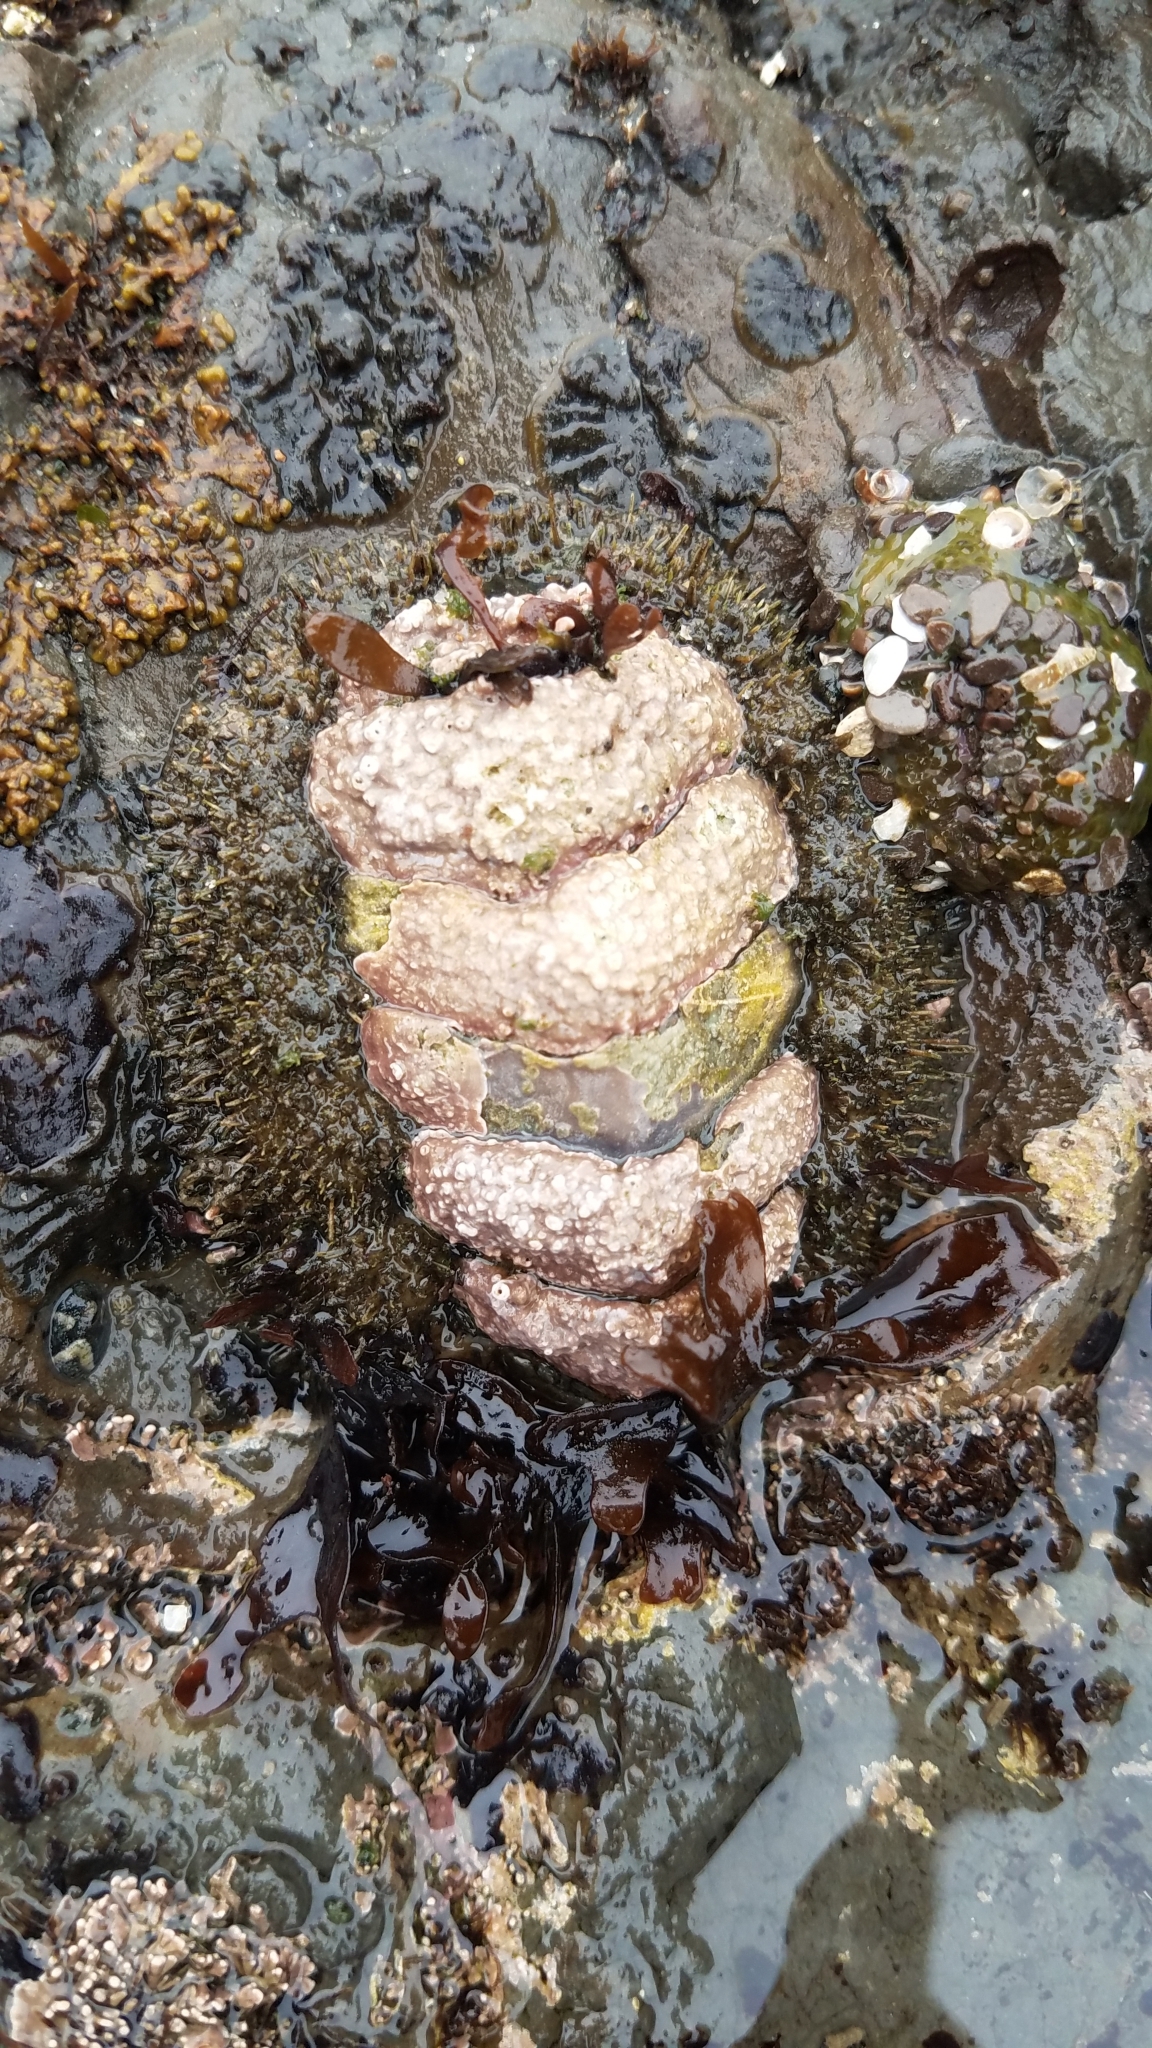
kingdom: Animalia
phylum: Mollusca
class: Polyplacophora
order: Chitonida
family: Mopaliidae
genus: Mopalia
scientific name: Mopalia muscosa
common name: Mossy chiton
